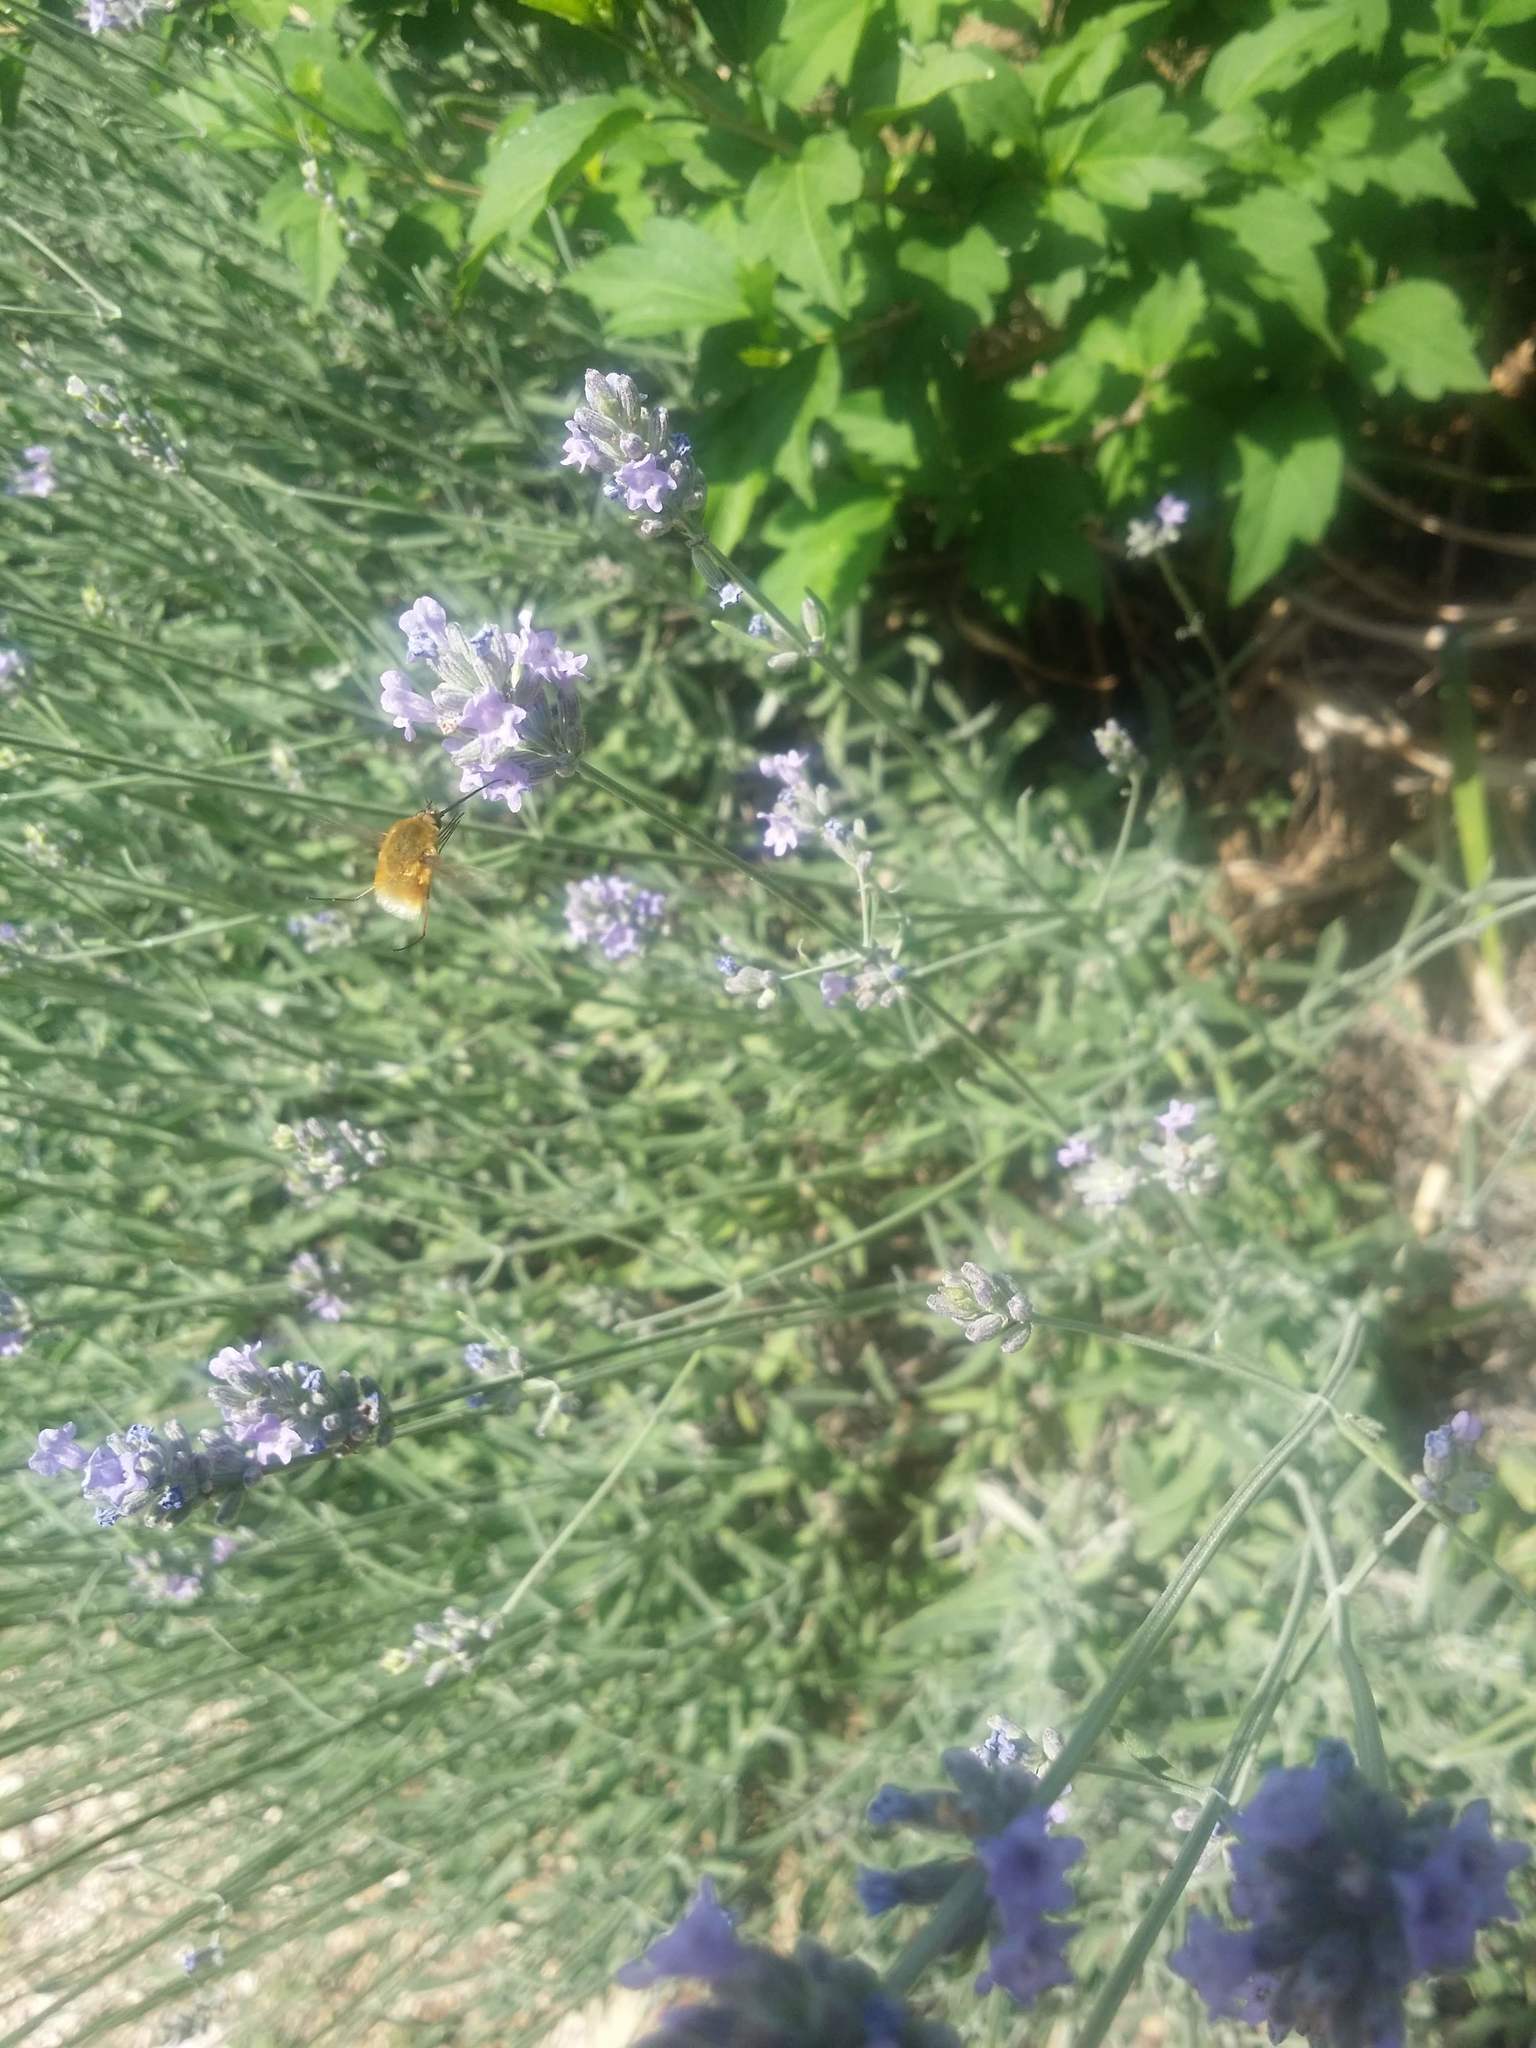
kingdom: Animalia
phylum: Arthropoda
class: Insecta
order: Diptera
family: Bombyliidae
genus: Bombylius
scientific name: Bombylius posticus
